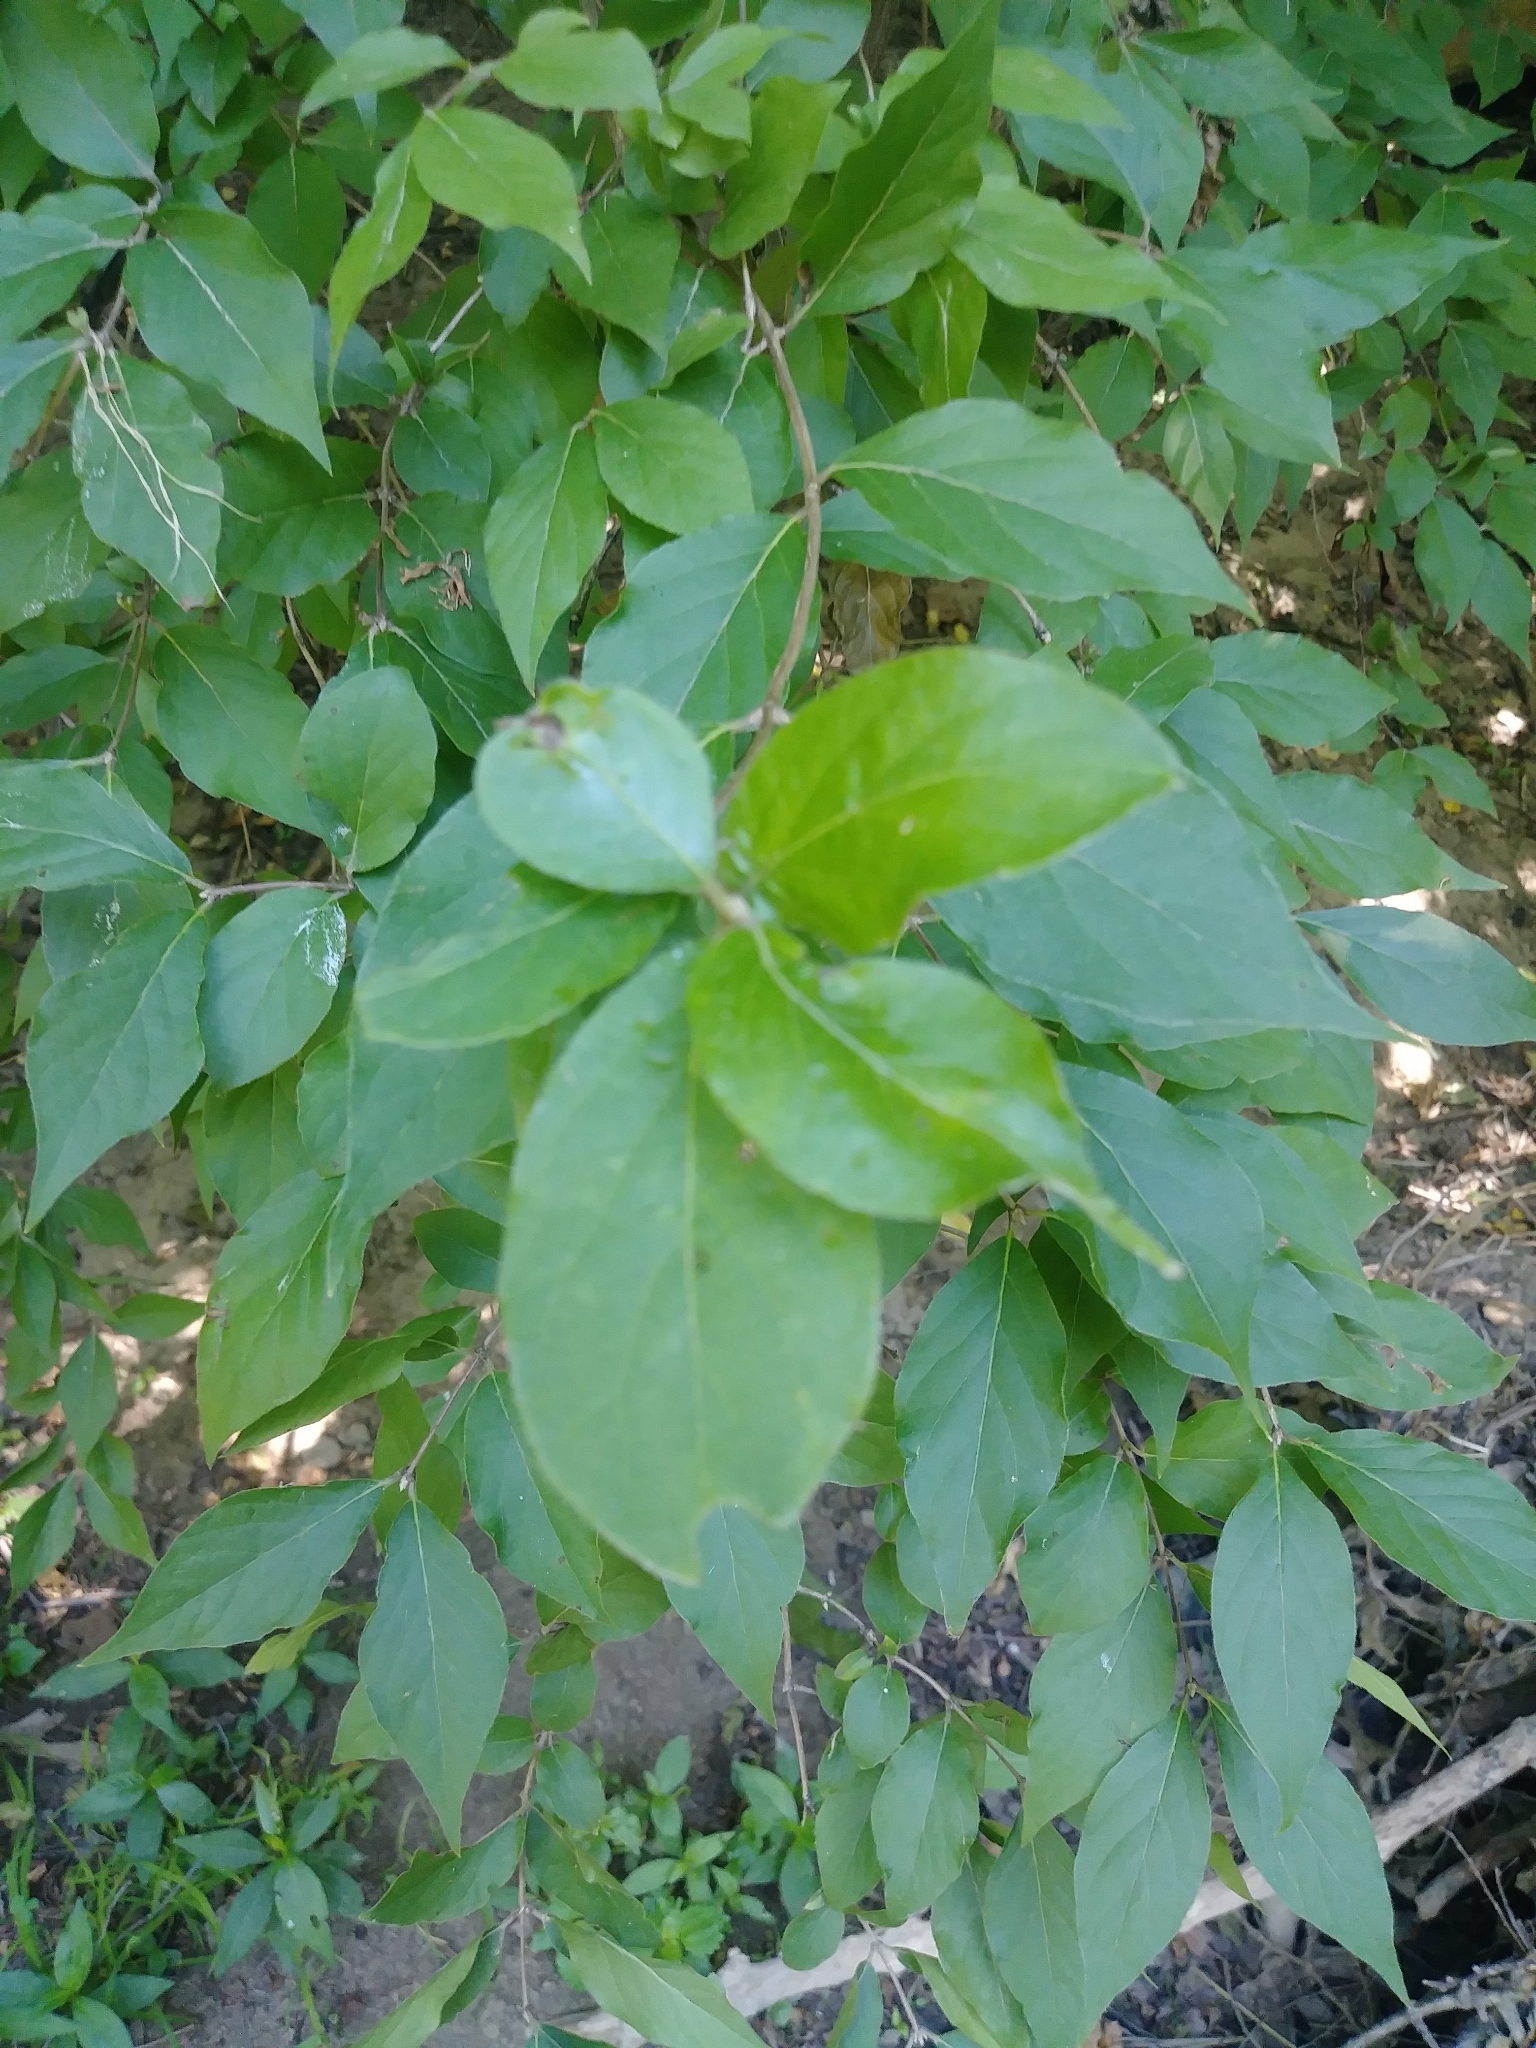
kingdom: Plantae
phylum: Tracheophyta
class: Magnoliopsida
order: Dipsacales
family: Caprifoliaceae
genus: Lonicera
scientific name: Lonicera maackii
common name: Amur honeysuckle
